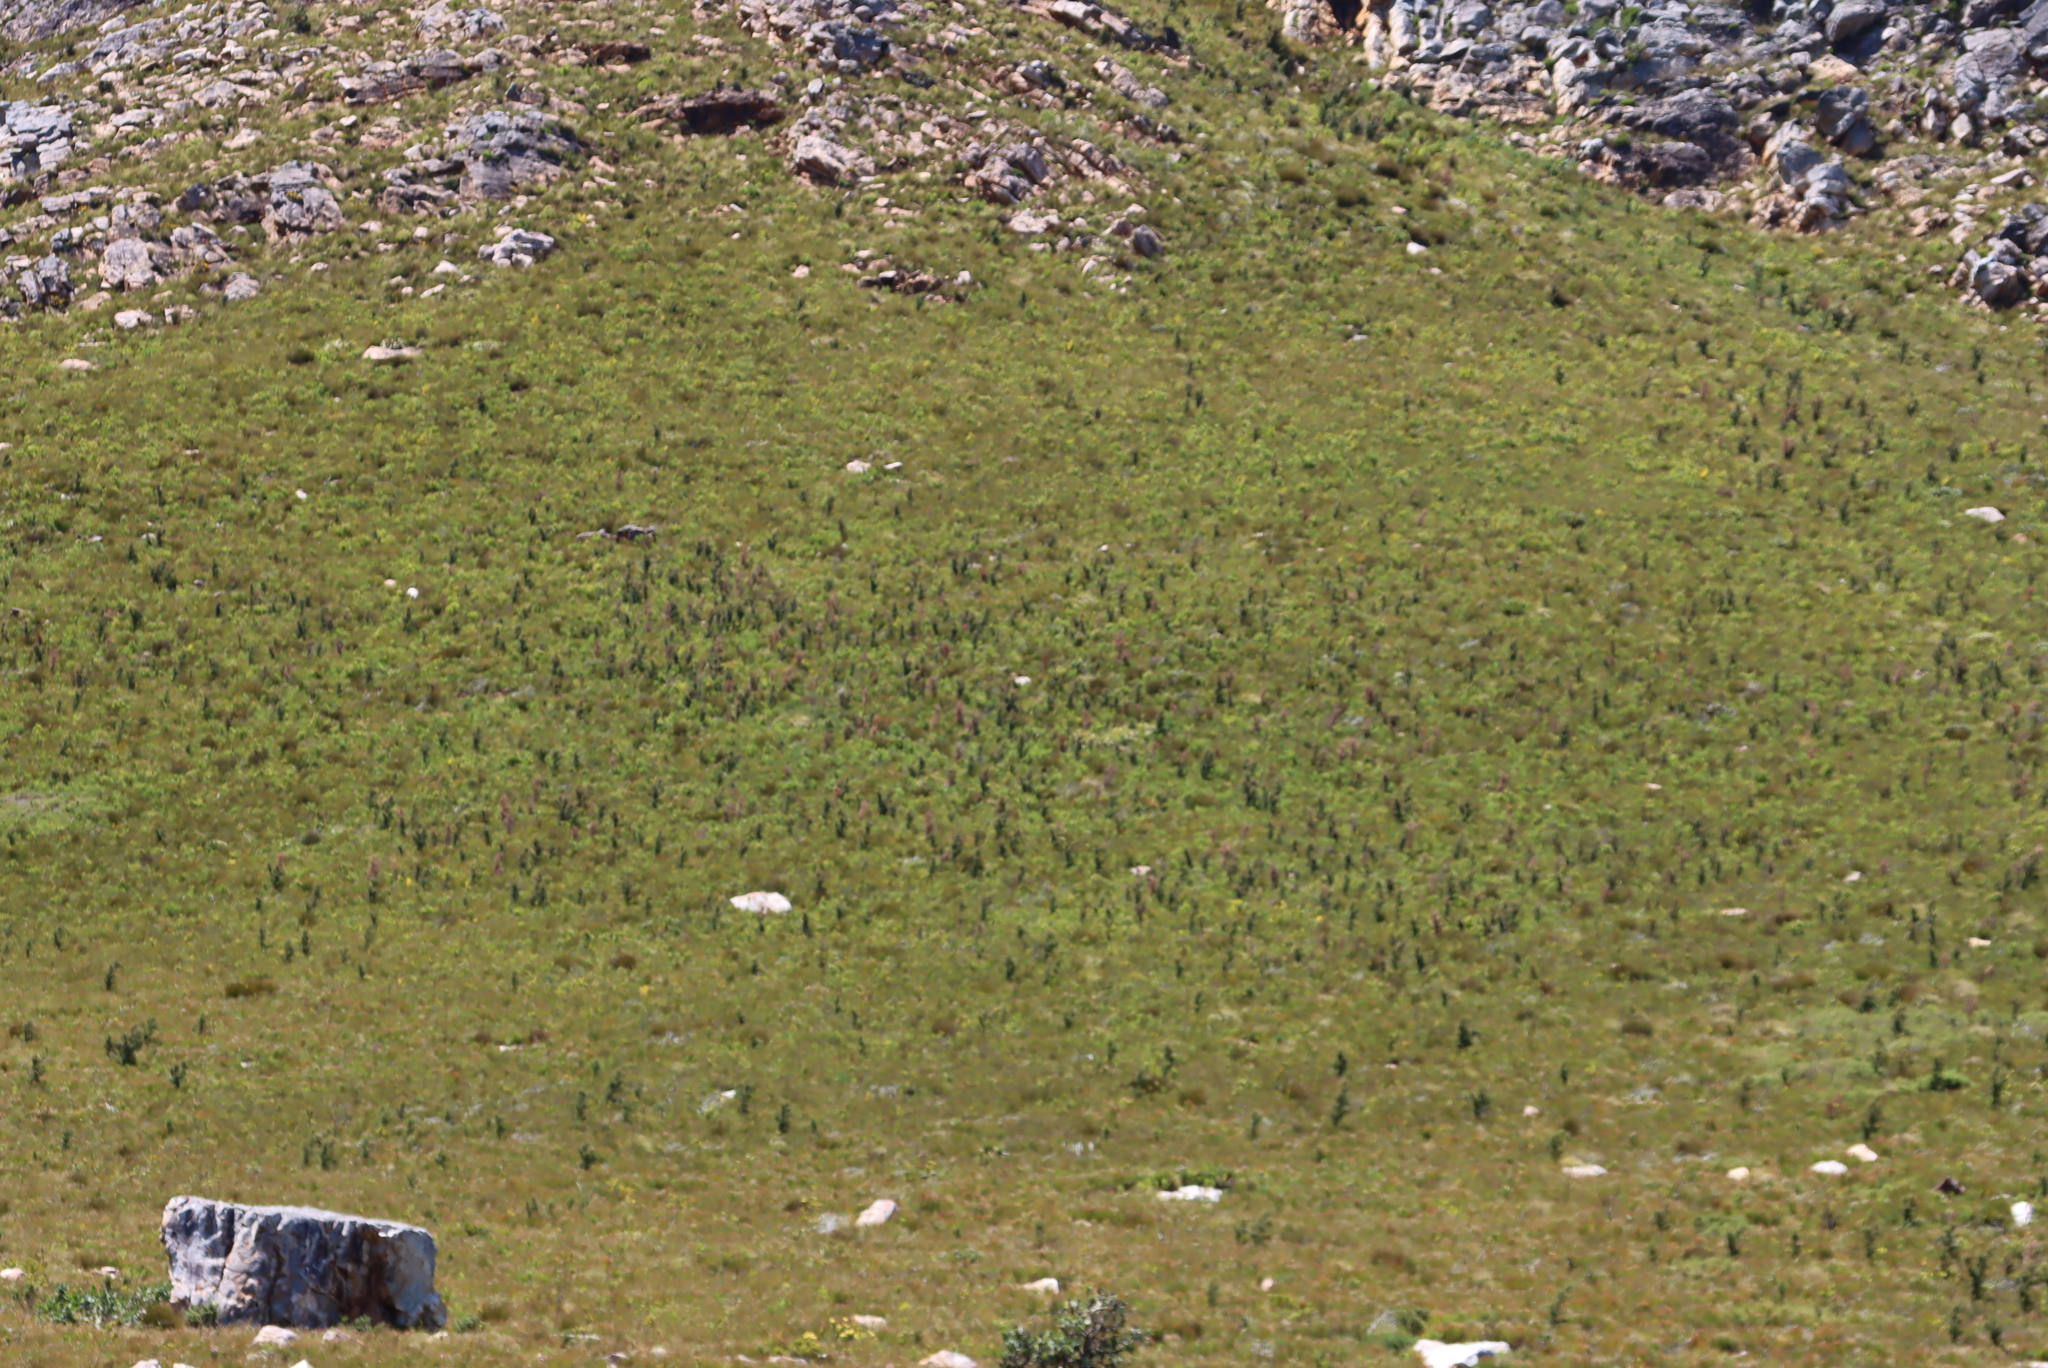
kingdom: Plantae
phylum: Tracheophyta
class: Magnoliopsida
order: Proteales
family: Proteaceae
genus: Hakea
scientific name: Hakea sericea
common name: Needle bush
